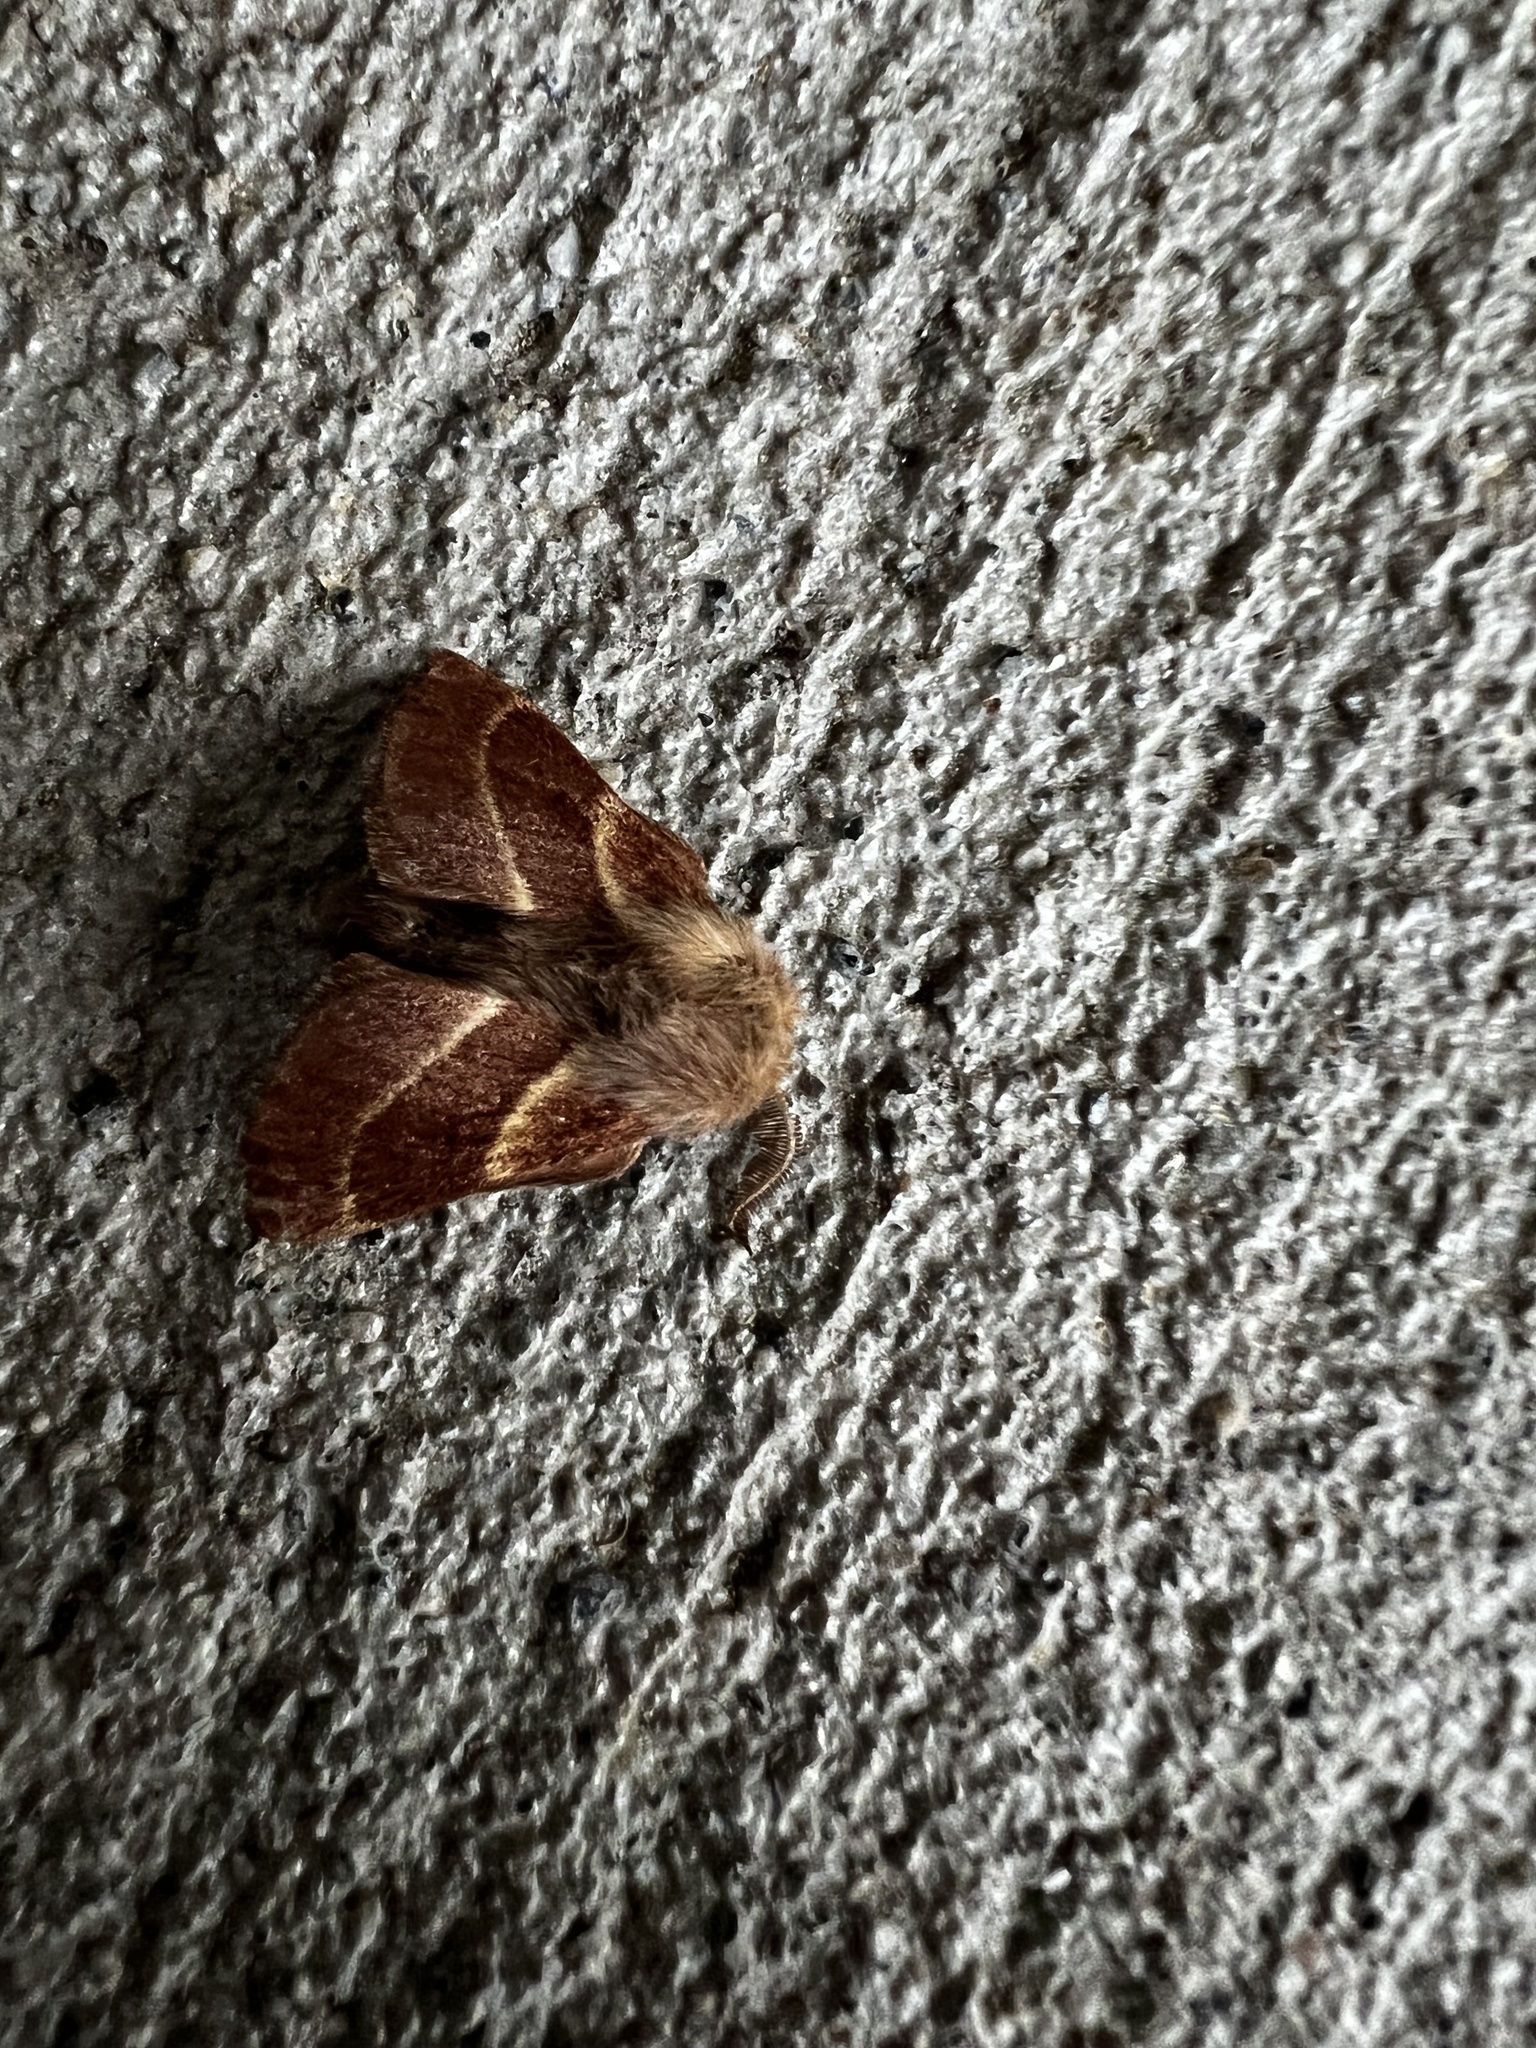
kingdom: Animalia
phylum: Arthropoda
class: Insecta
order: Lepidoptera
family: Lasiocampidae
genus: Malacosoma
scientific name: Malacosoma californica
